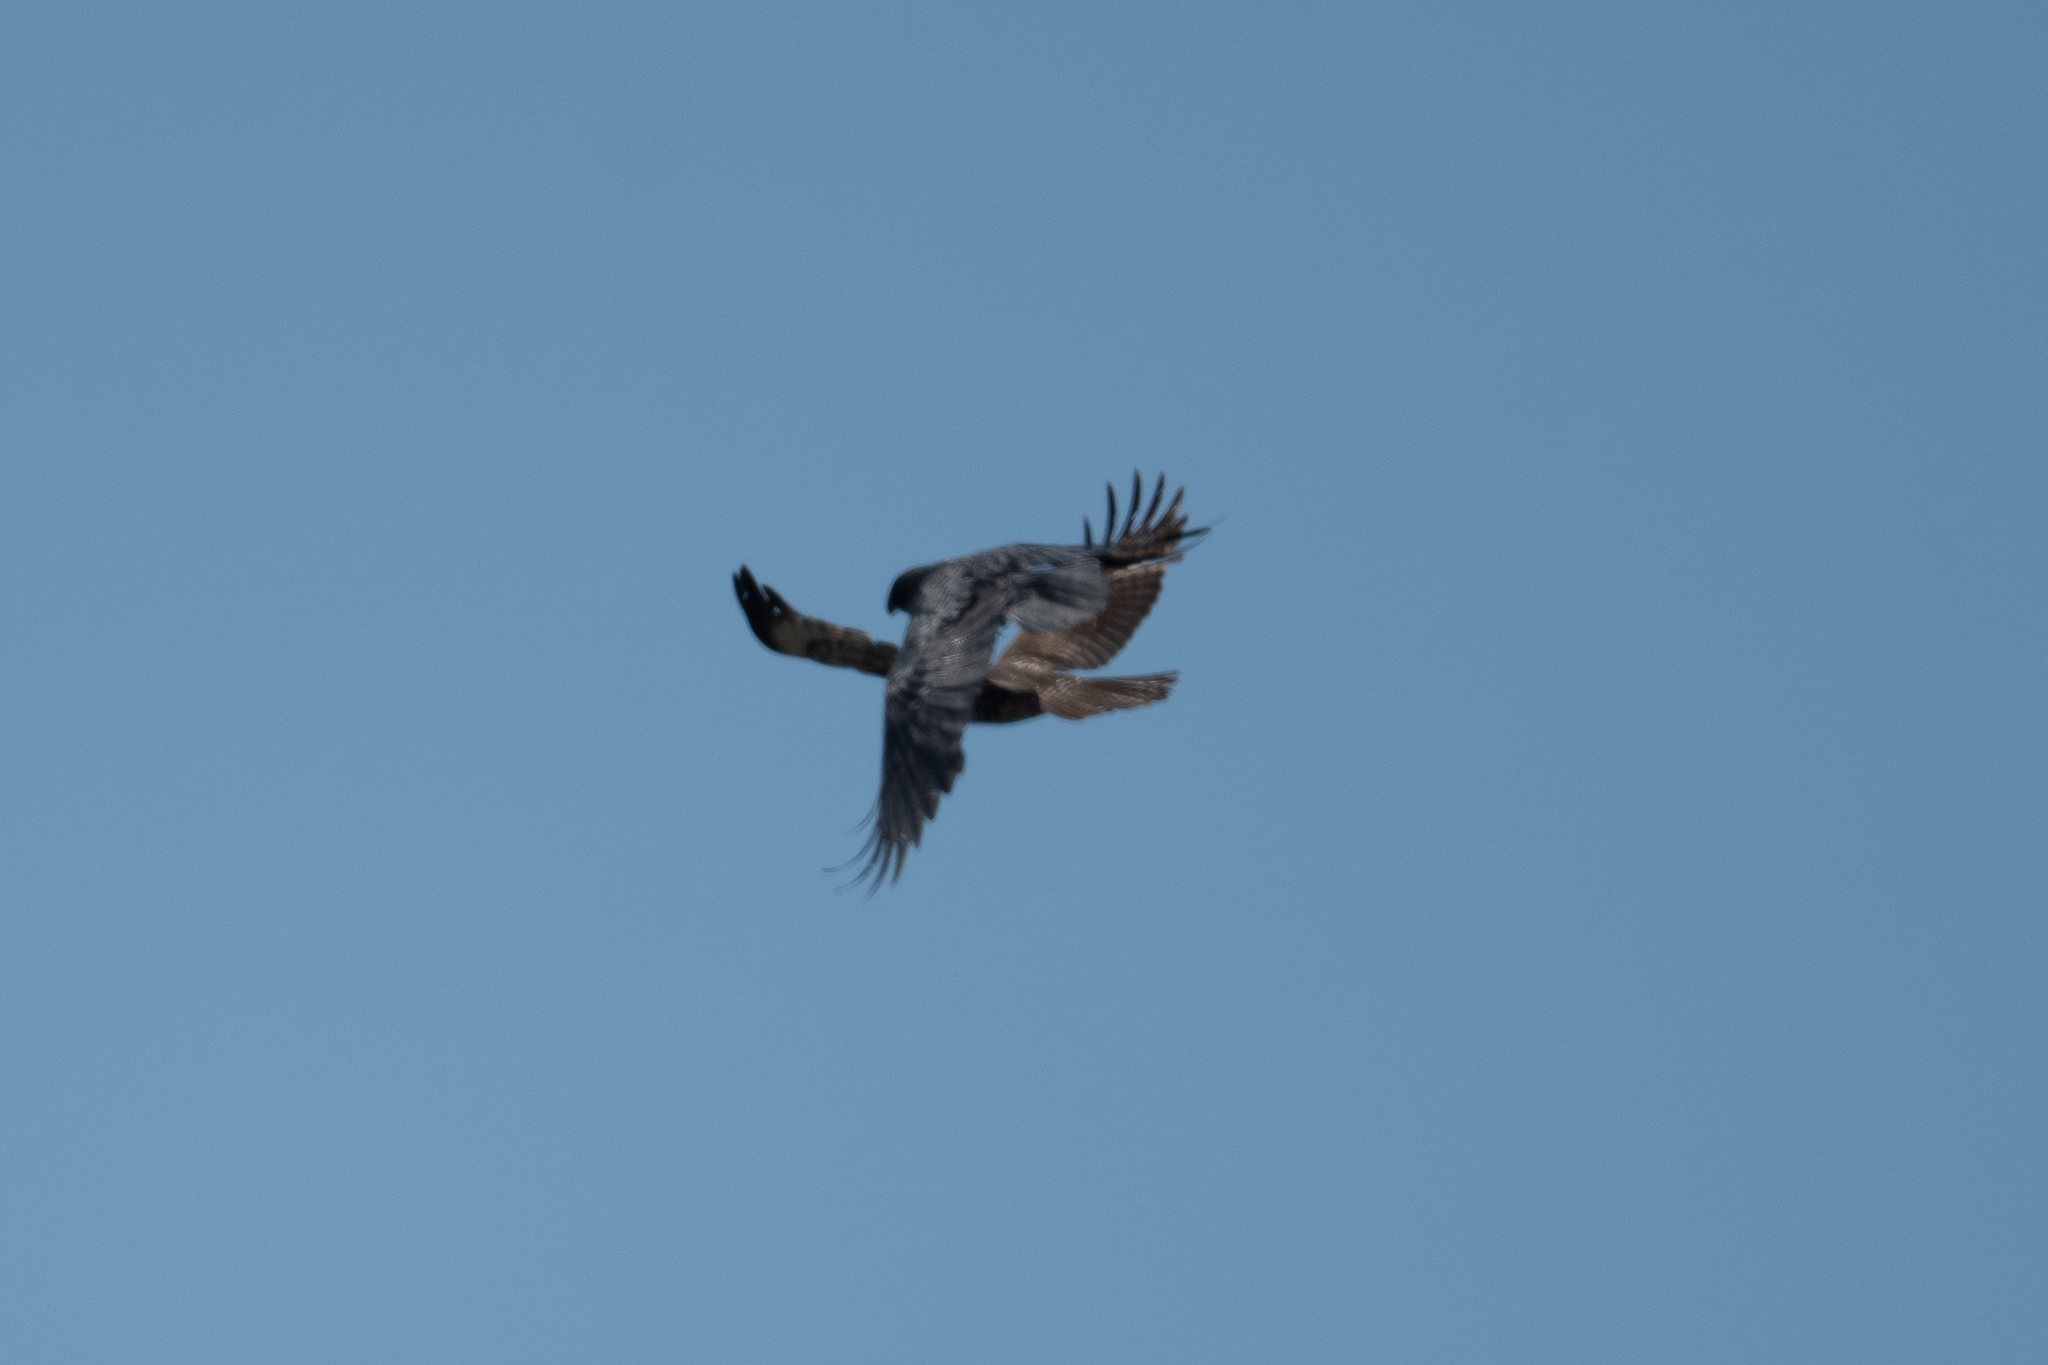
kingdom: Animalia
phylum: Chordata
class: Aves
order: Accipitriformes
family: Accipitridae
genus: Buteo
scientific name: Buteo jamaicensis
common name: Red-tailed hawk
